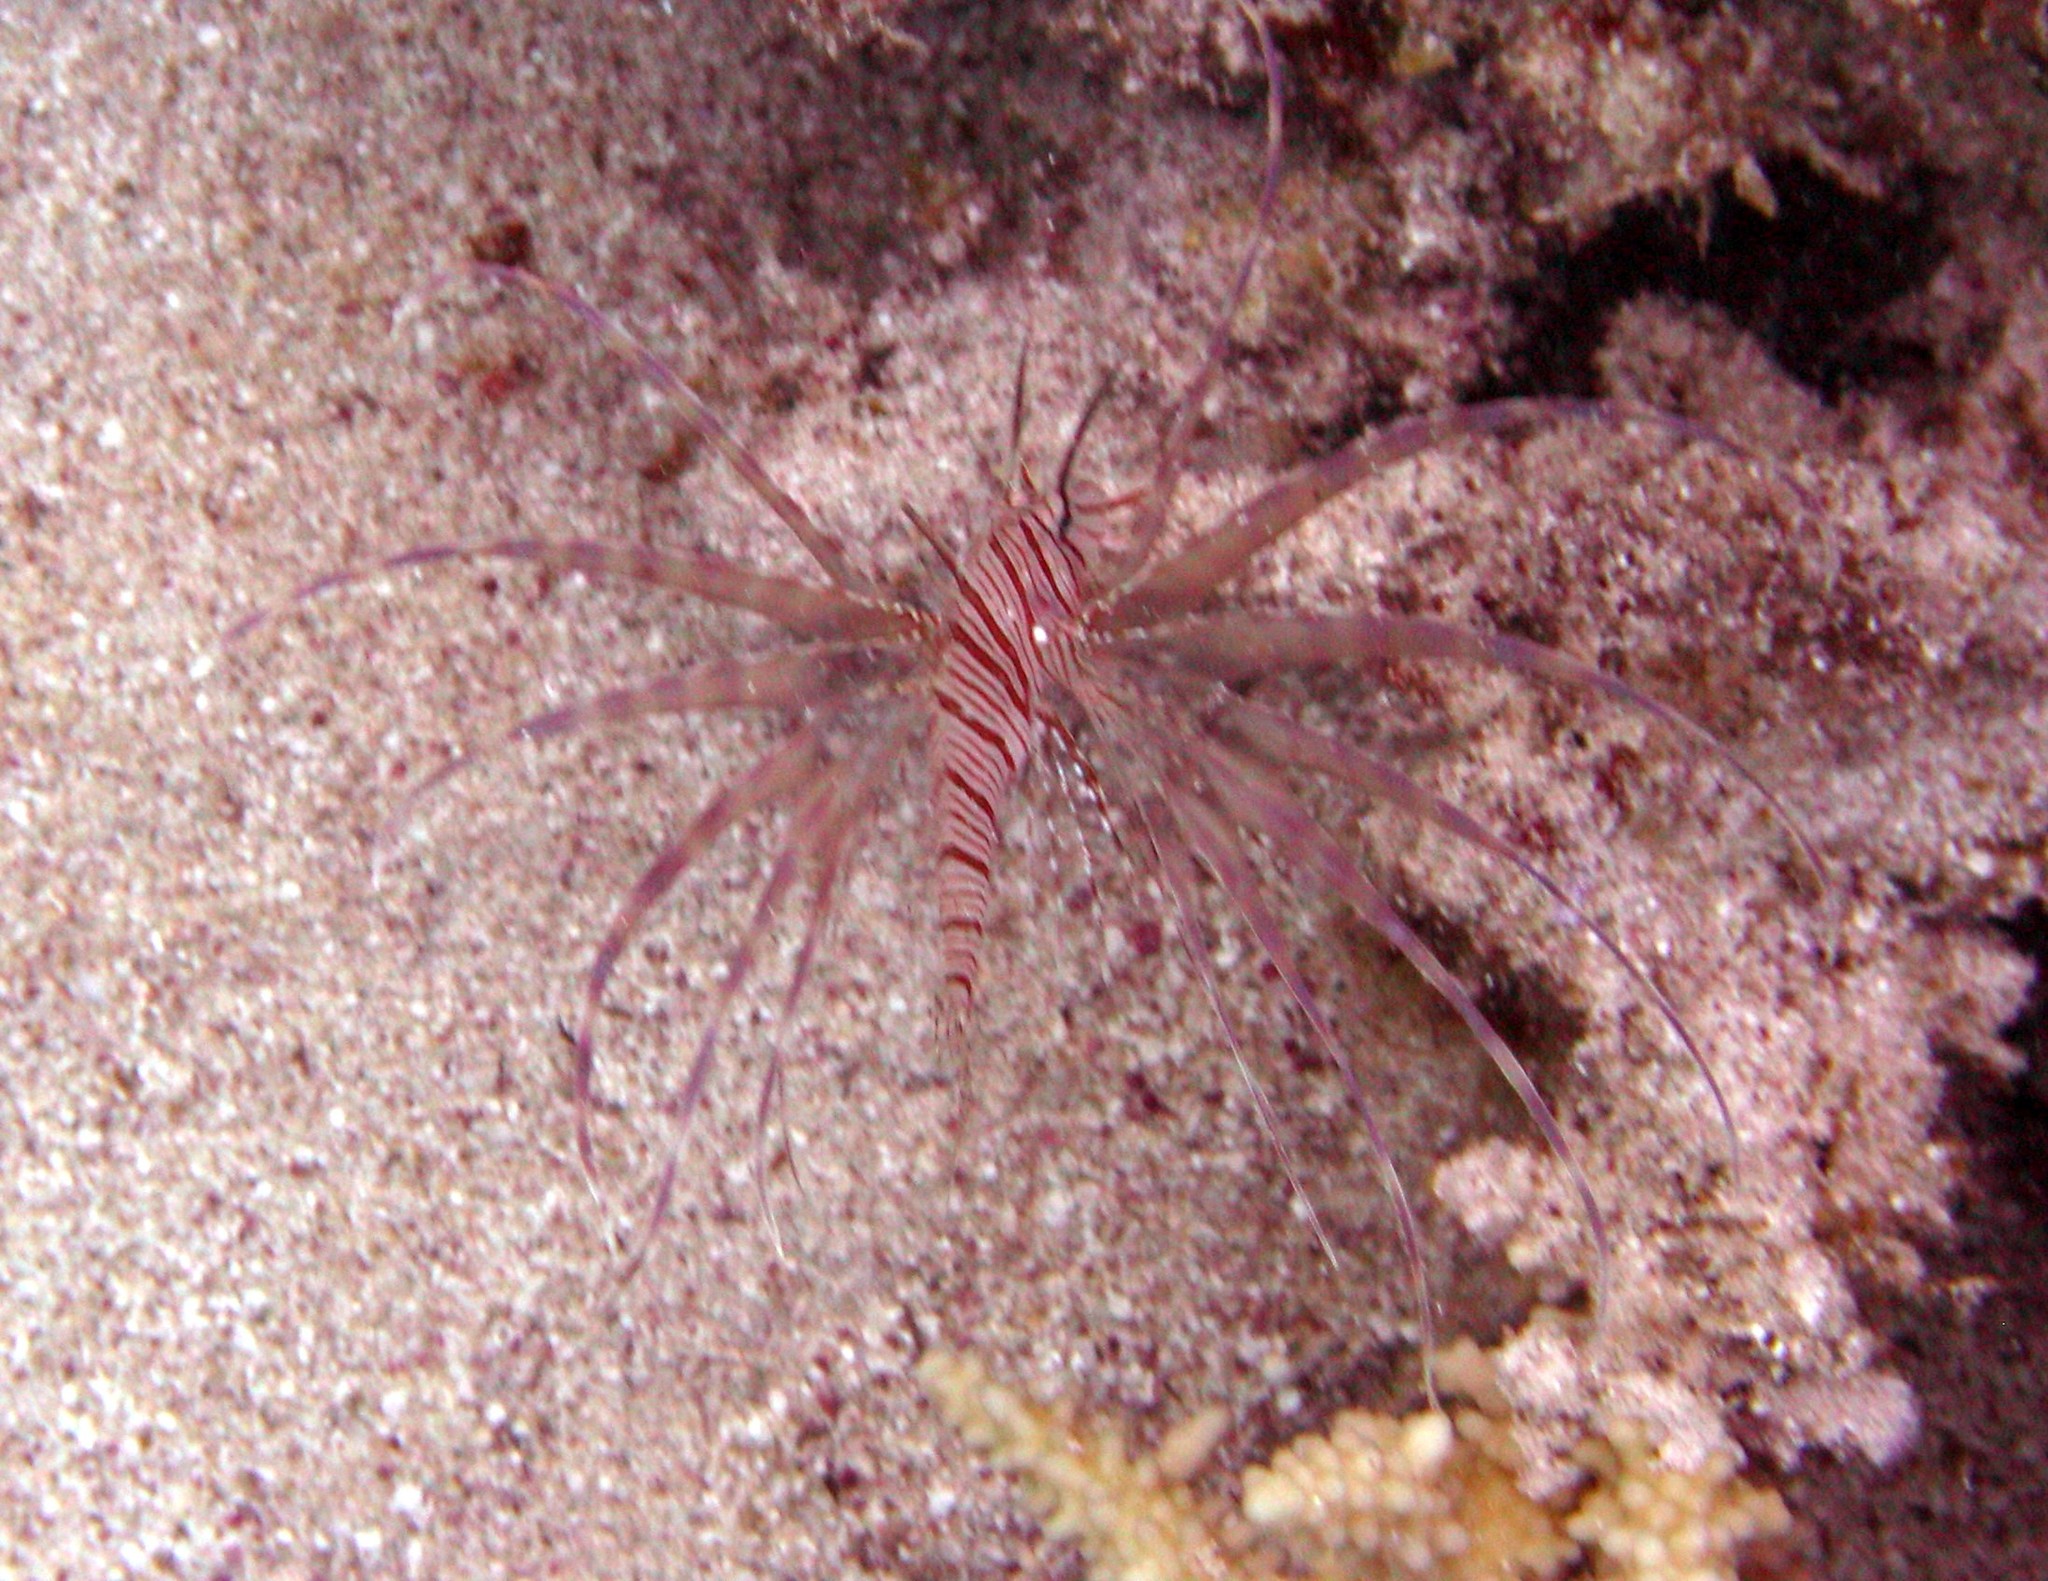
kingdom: Animalia
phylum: Chordata
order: Scorpaeniformes
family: Scorpaenidae
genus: Pterois
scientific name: Pterois miles
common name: Devil firefish
